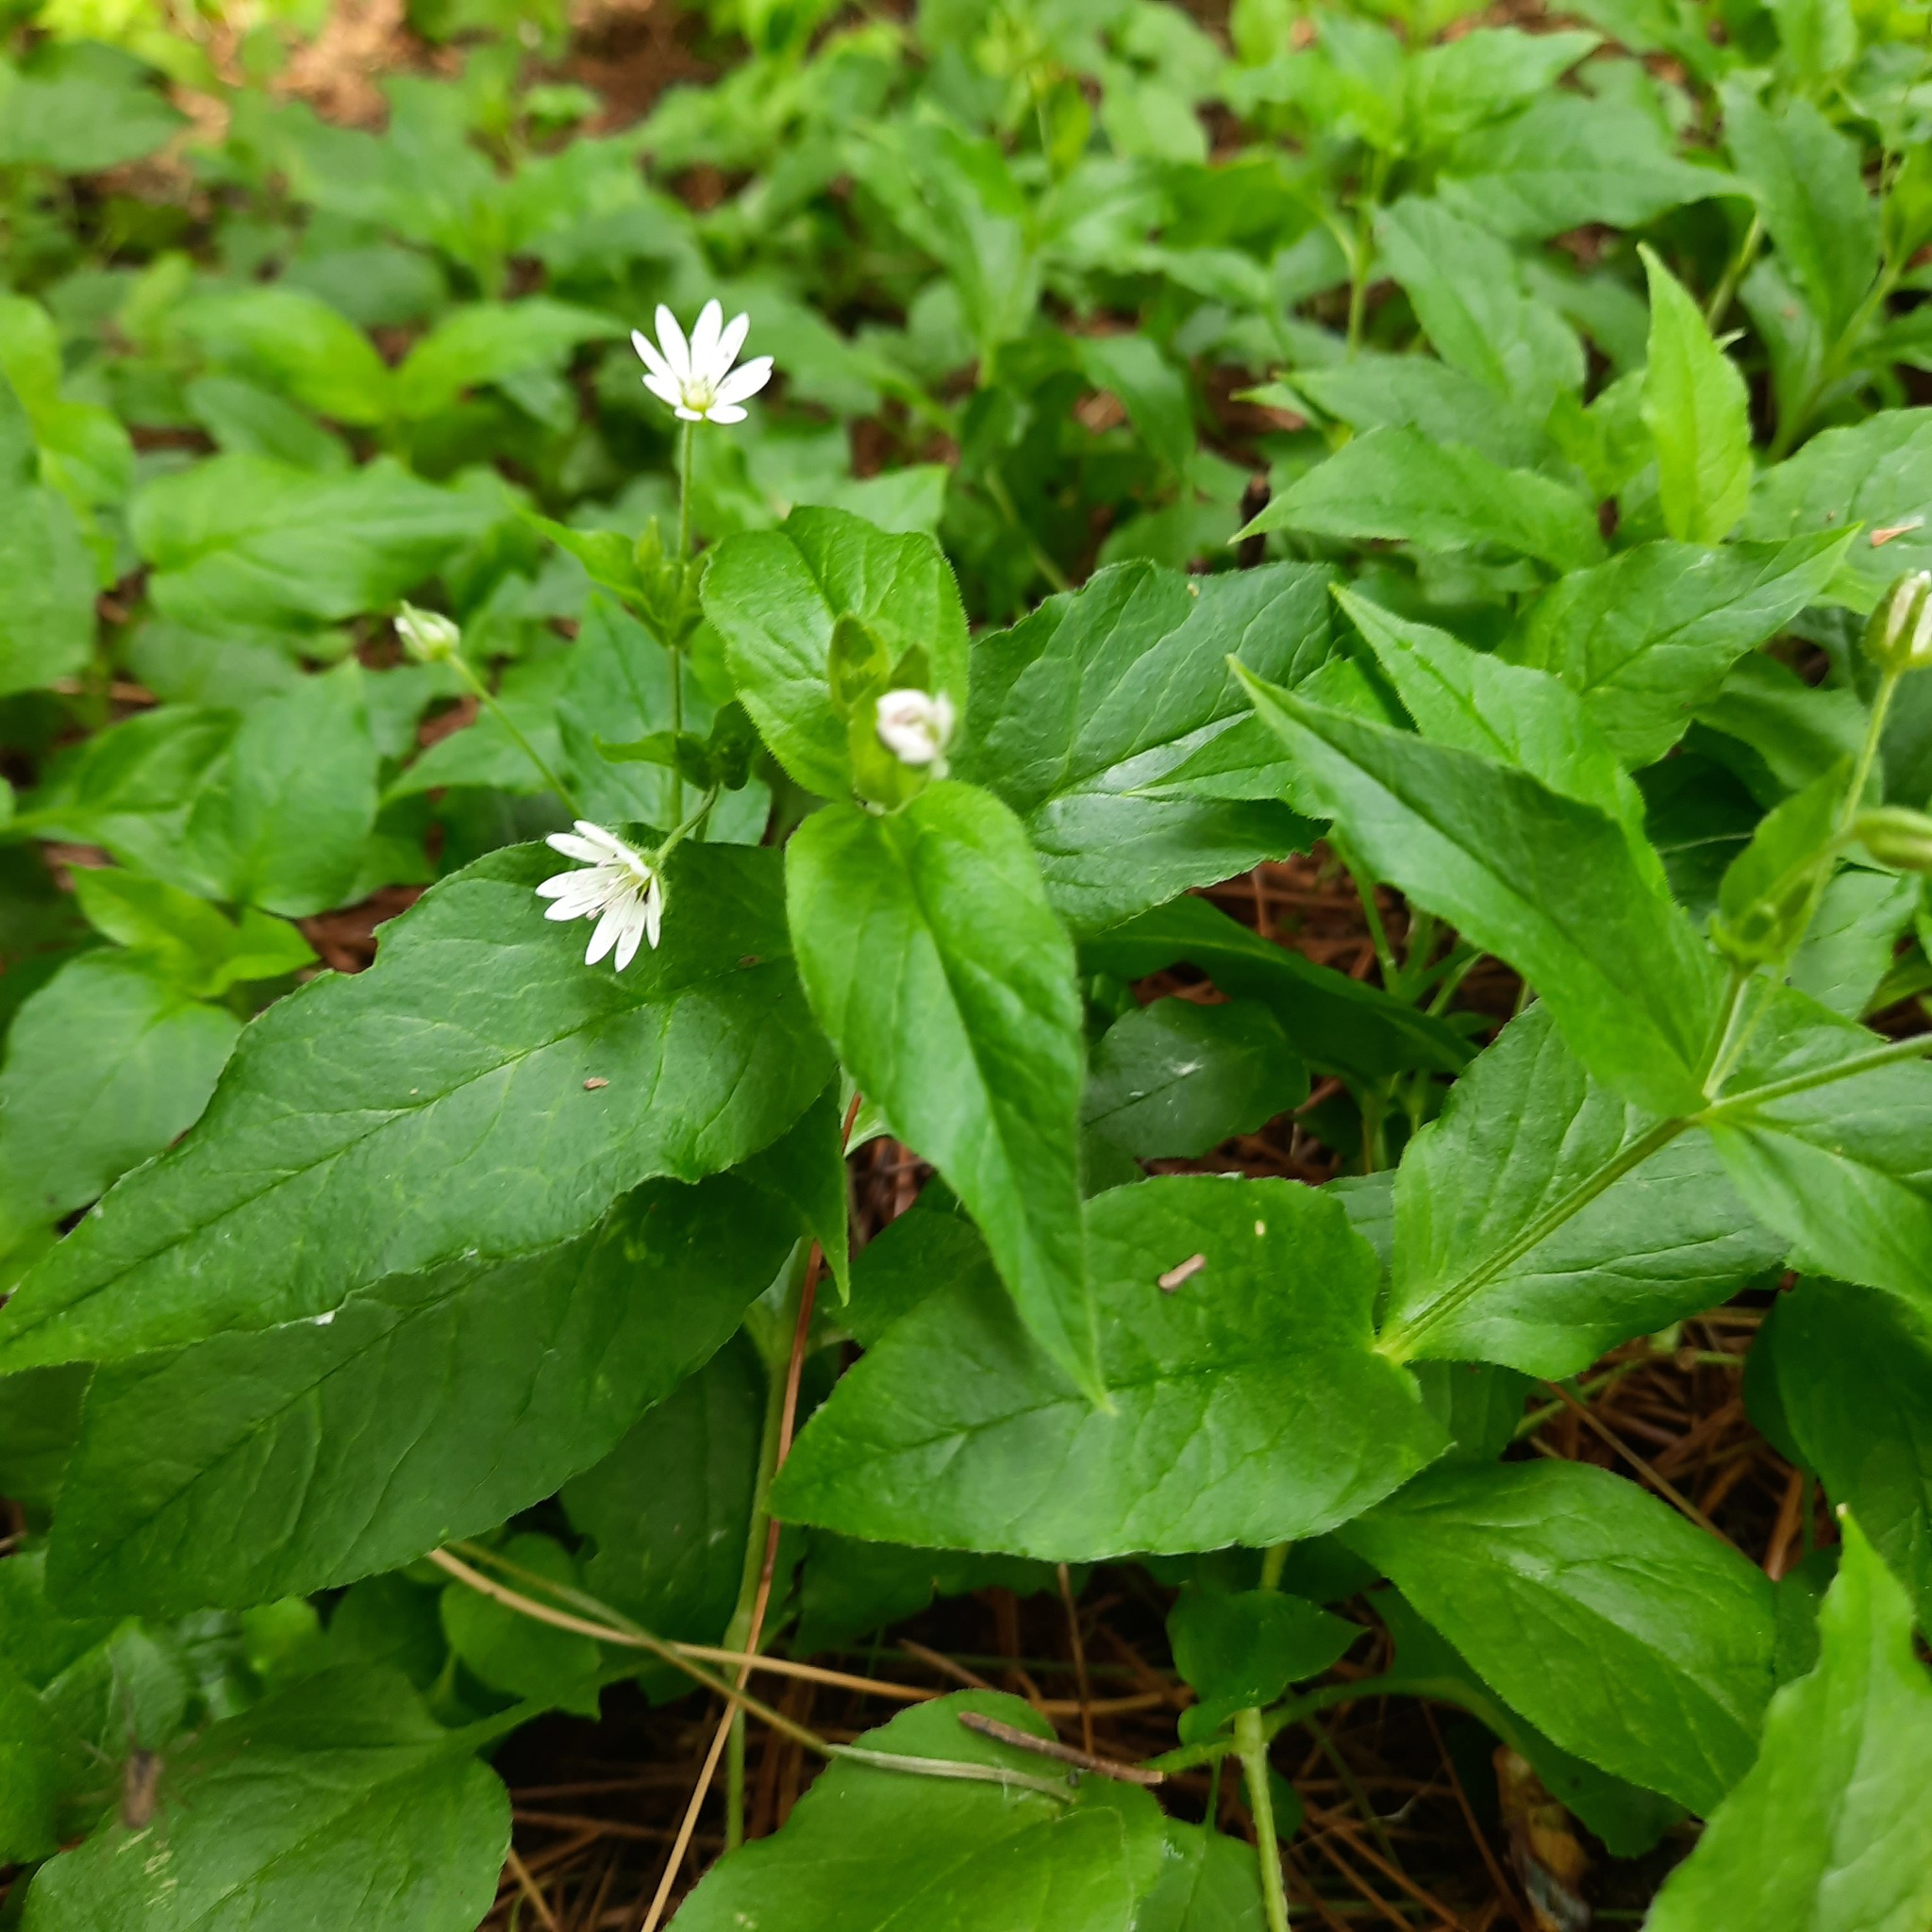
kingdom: Plantae
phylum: Tracheophyta
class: Magnoliopsida
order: Caryophyllales
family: Caryophyllaceae
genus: Stellaria
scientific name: Stellaria bungeana
